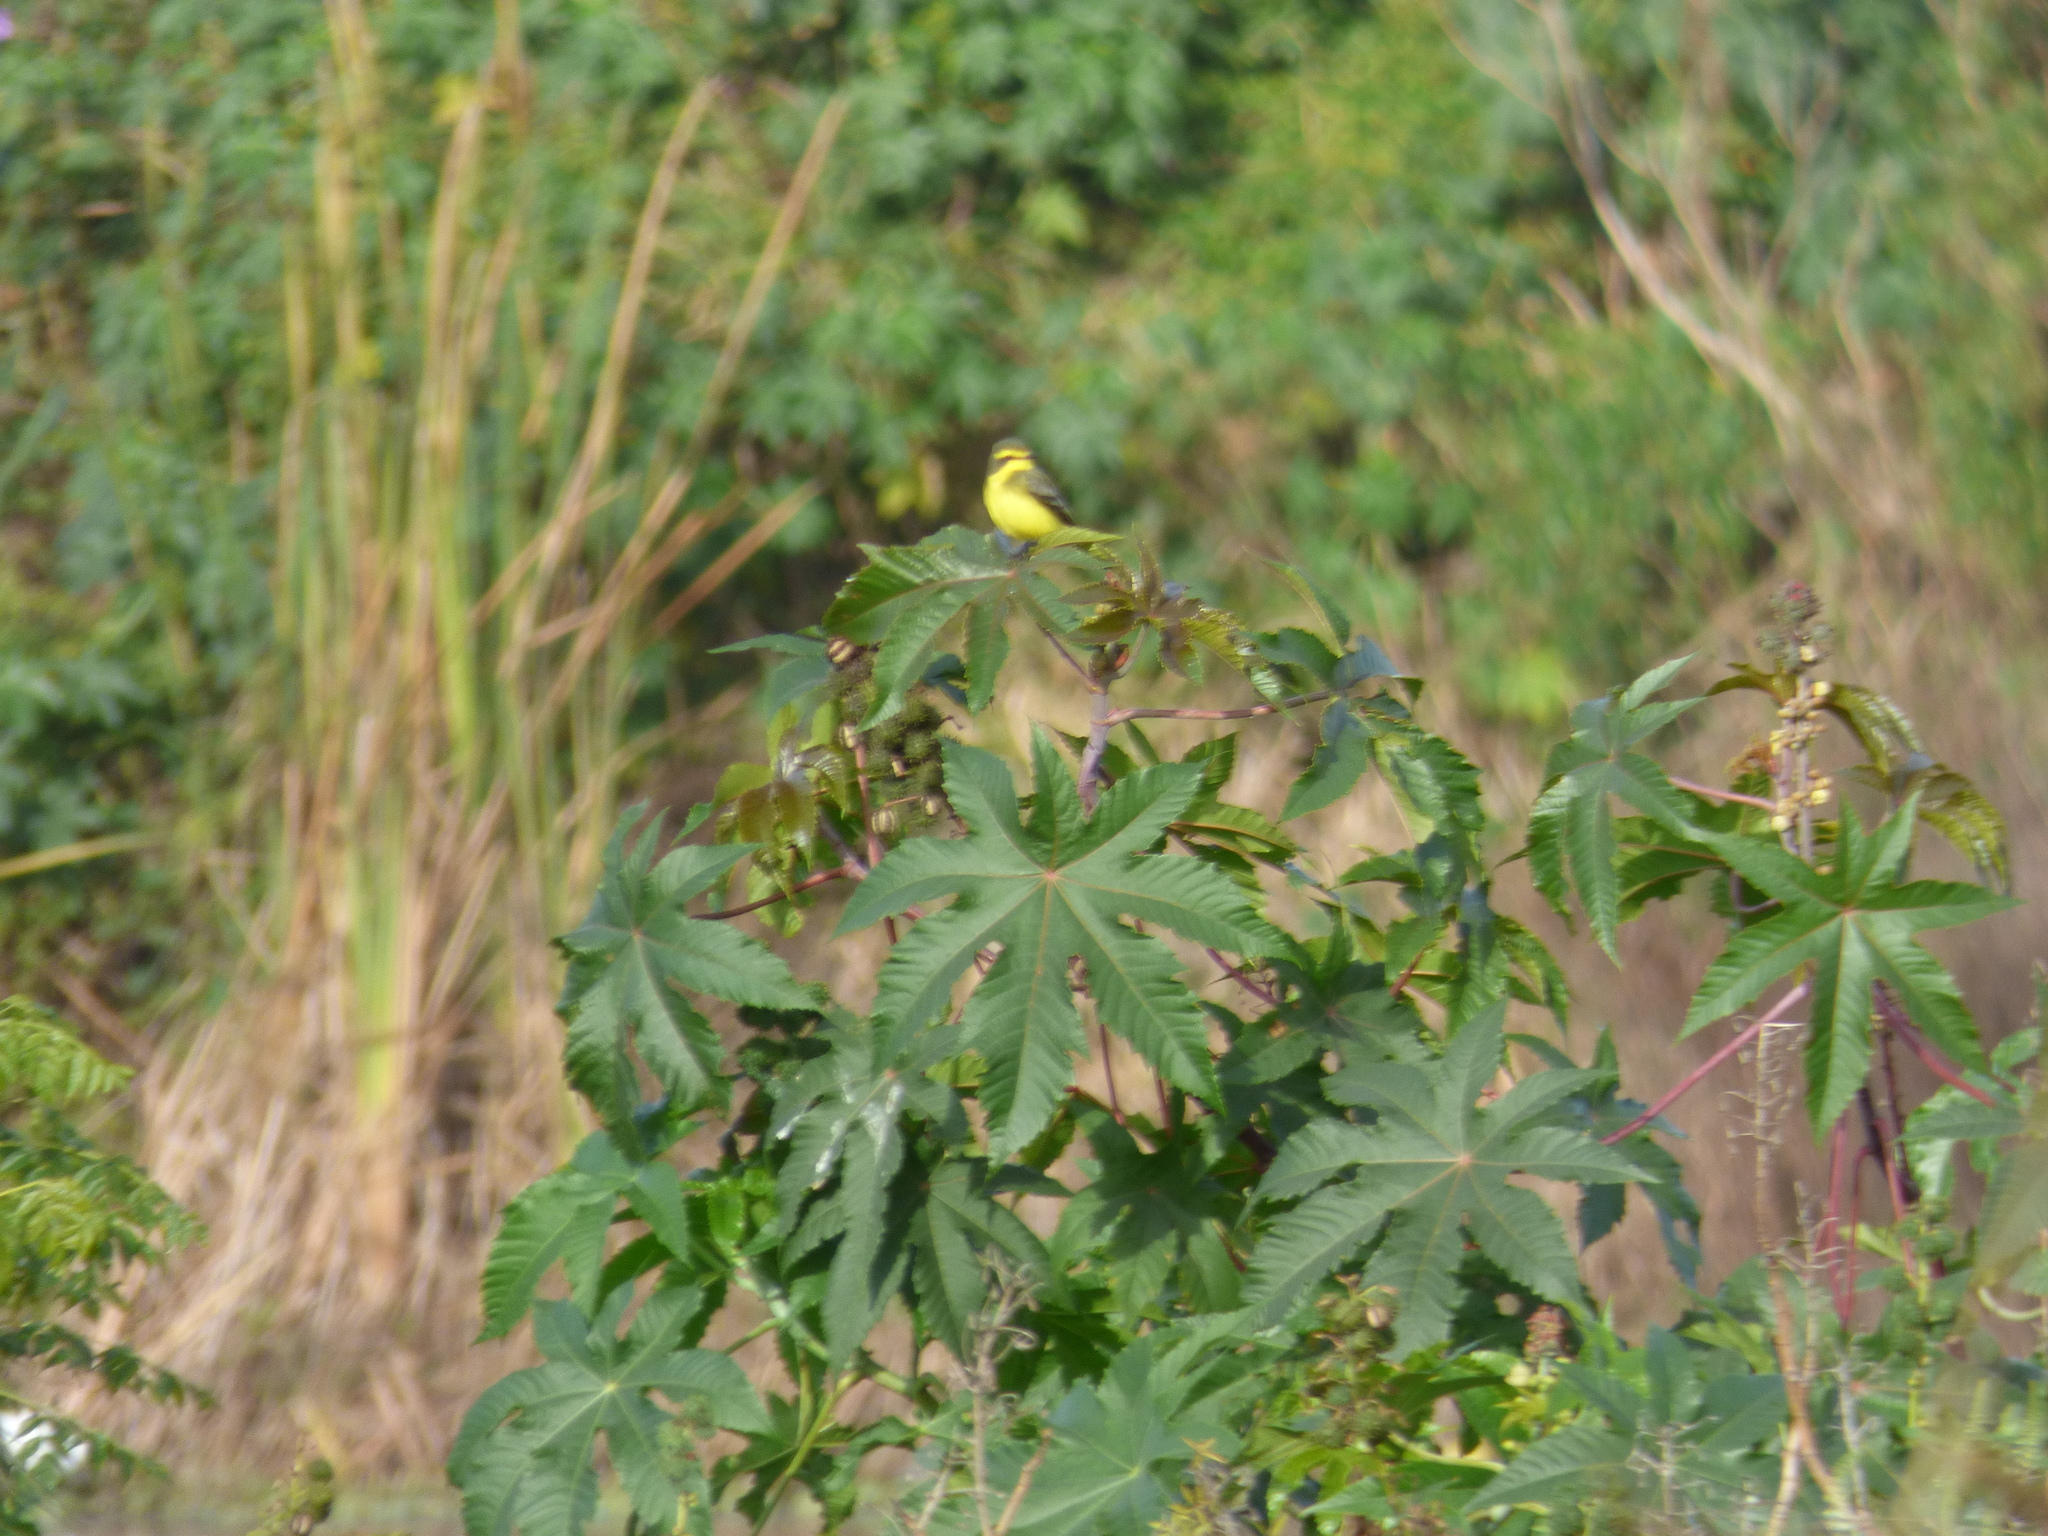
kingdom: Animalia
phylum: Chordata
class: Aves
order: Passeriformes
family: Tyrannidae
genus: Satrapa
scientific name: Satrapa icterophrys
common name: Yellow-browed tyrant
